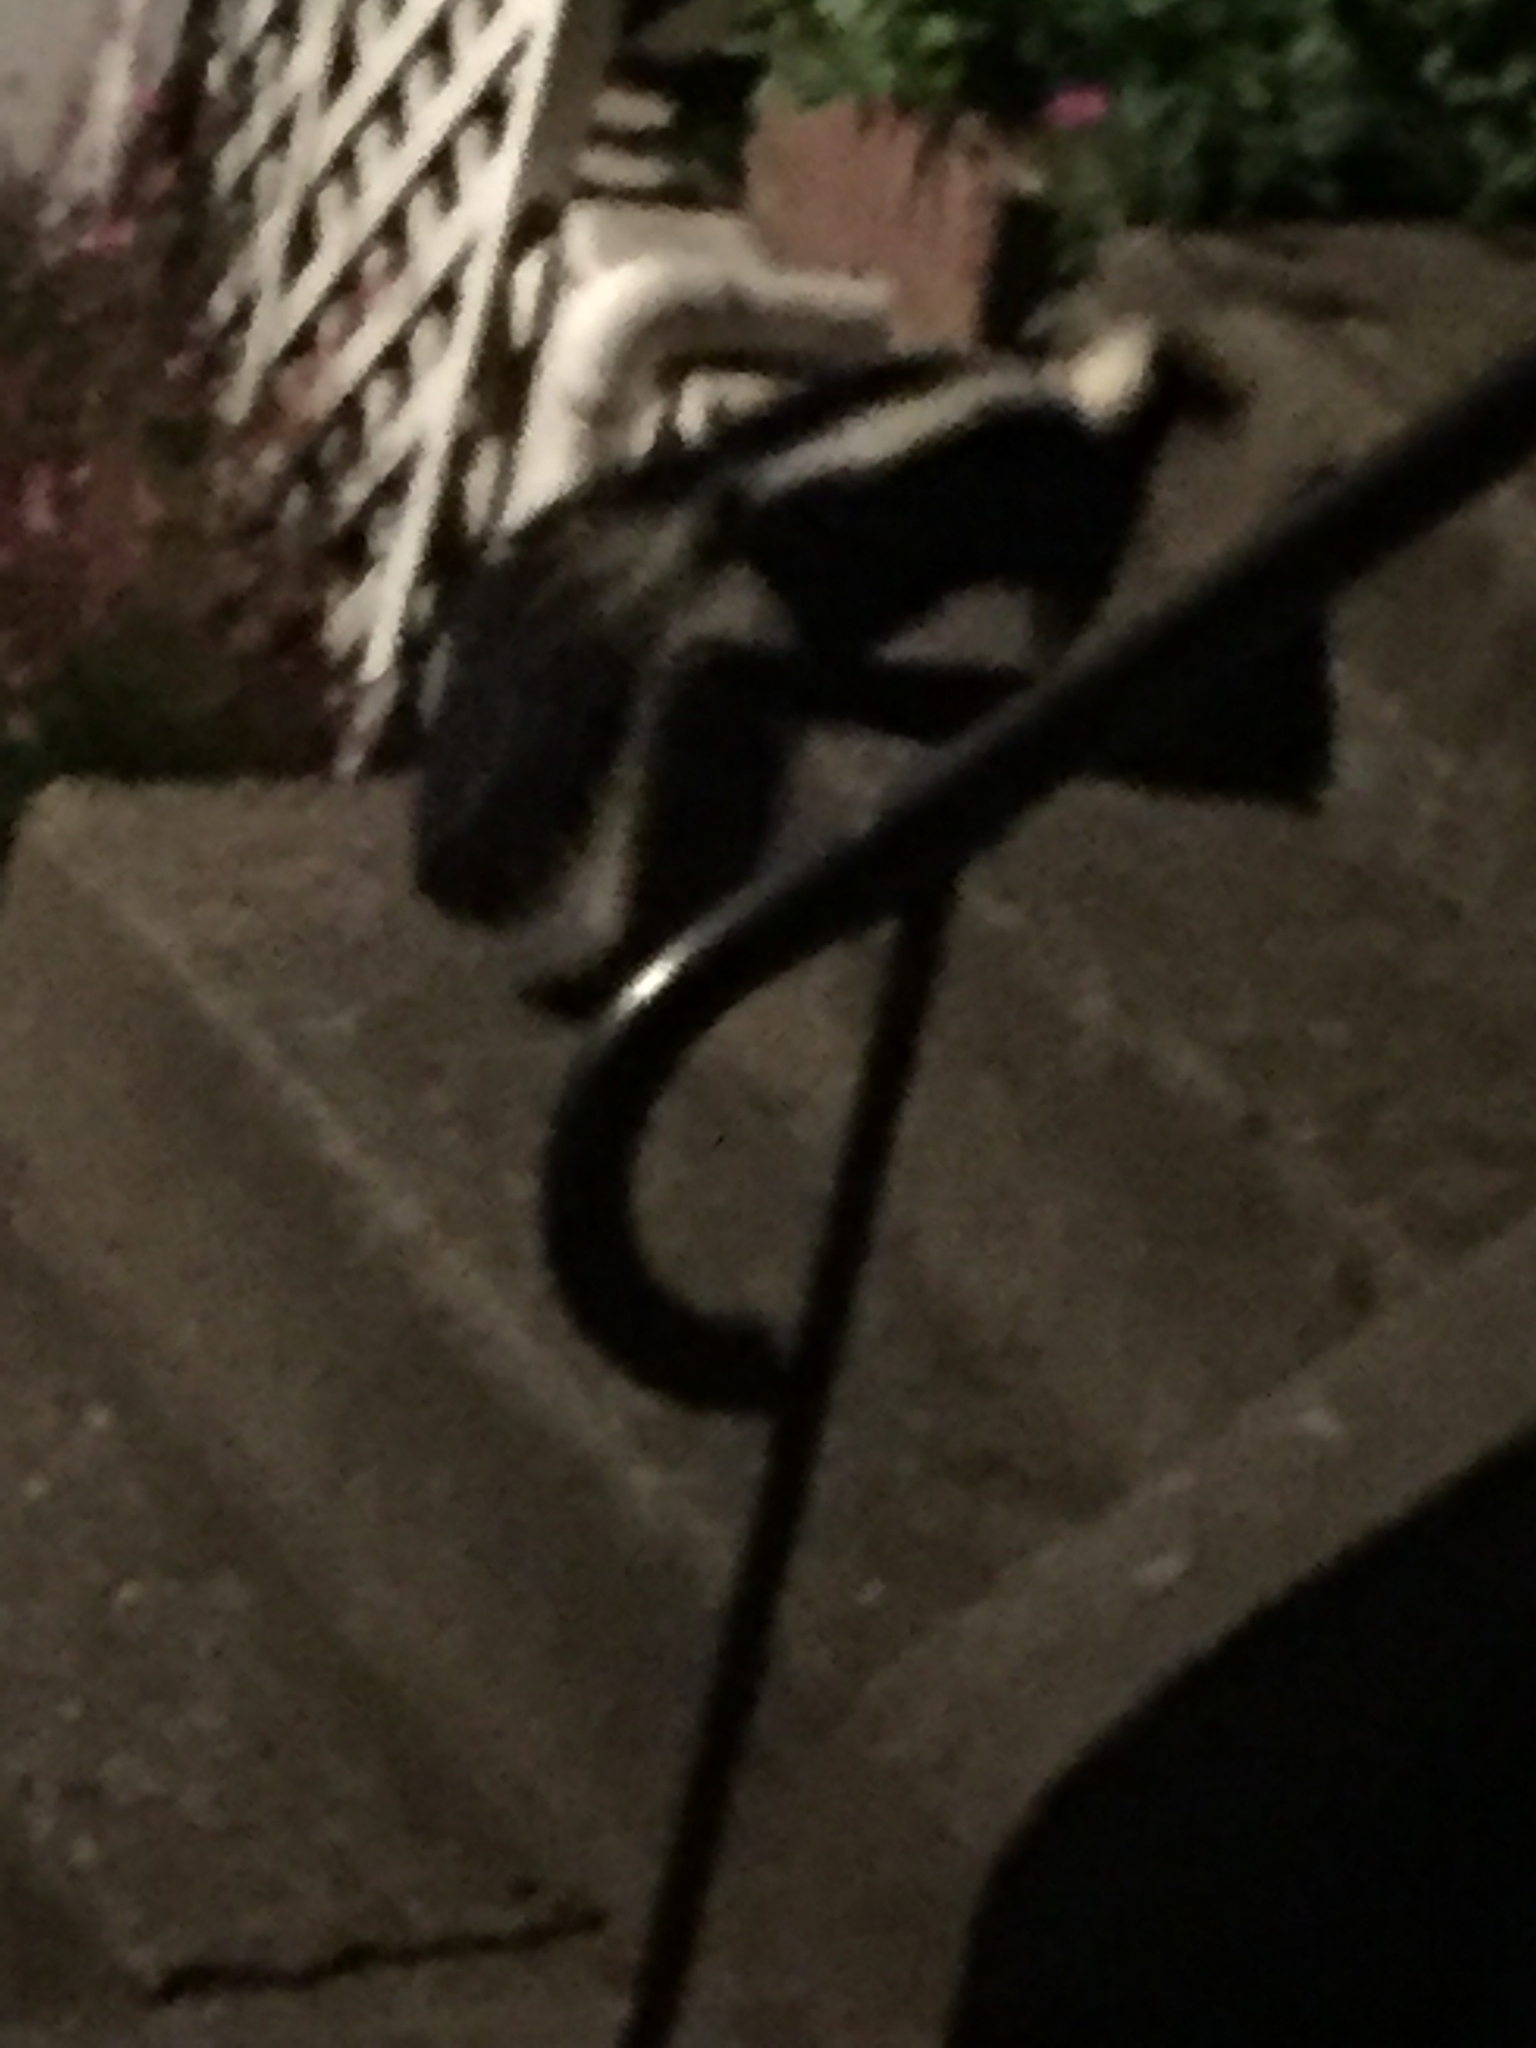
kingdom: Animalia
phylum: Chordata
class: Mammalia
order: Carnivora
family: Mephitidae
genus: Mephitis
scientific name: Mephitis mephitis
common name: Striped skunk
